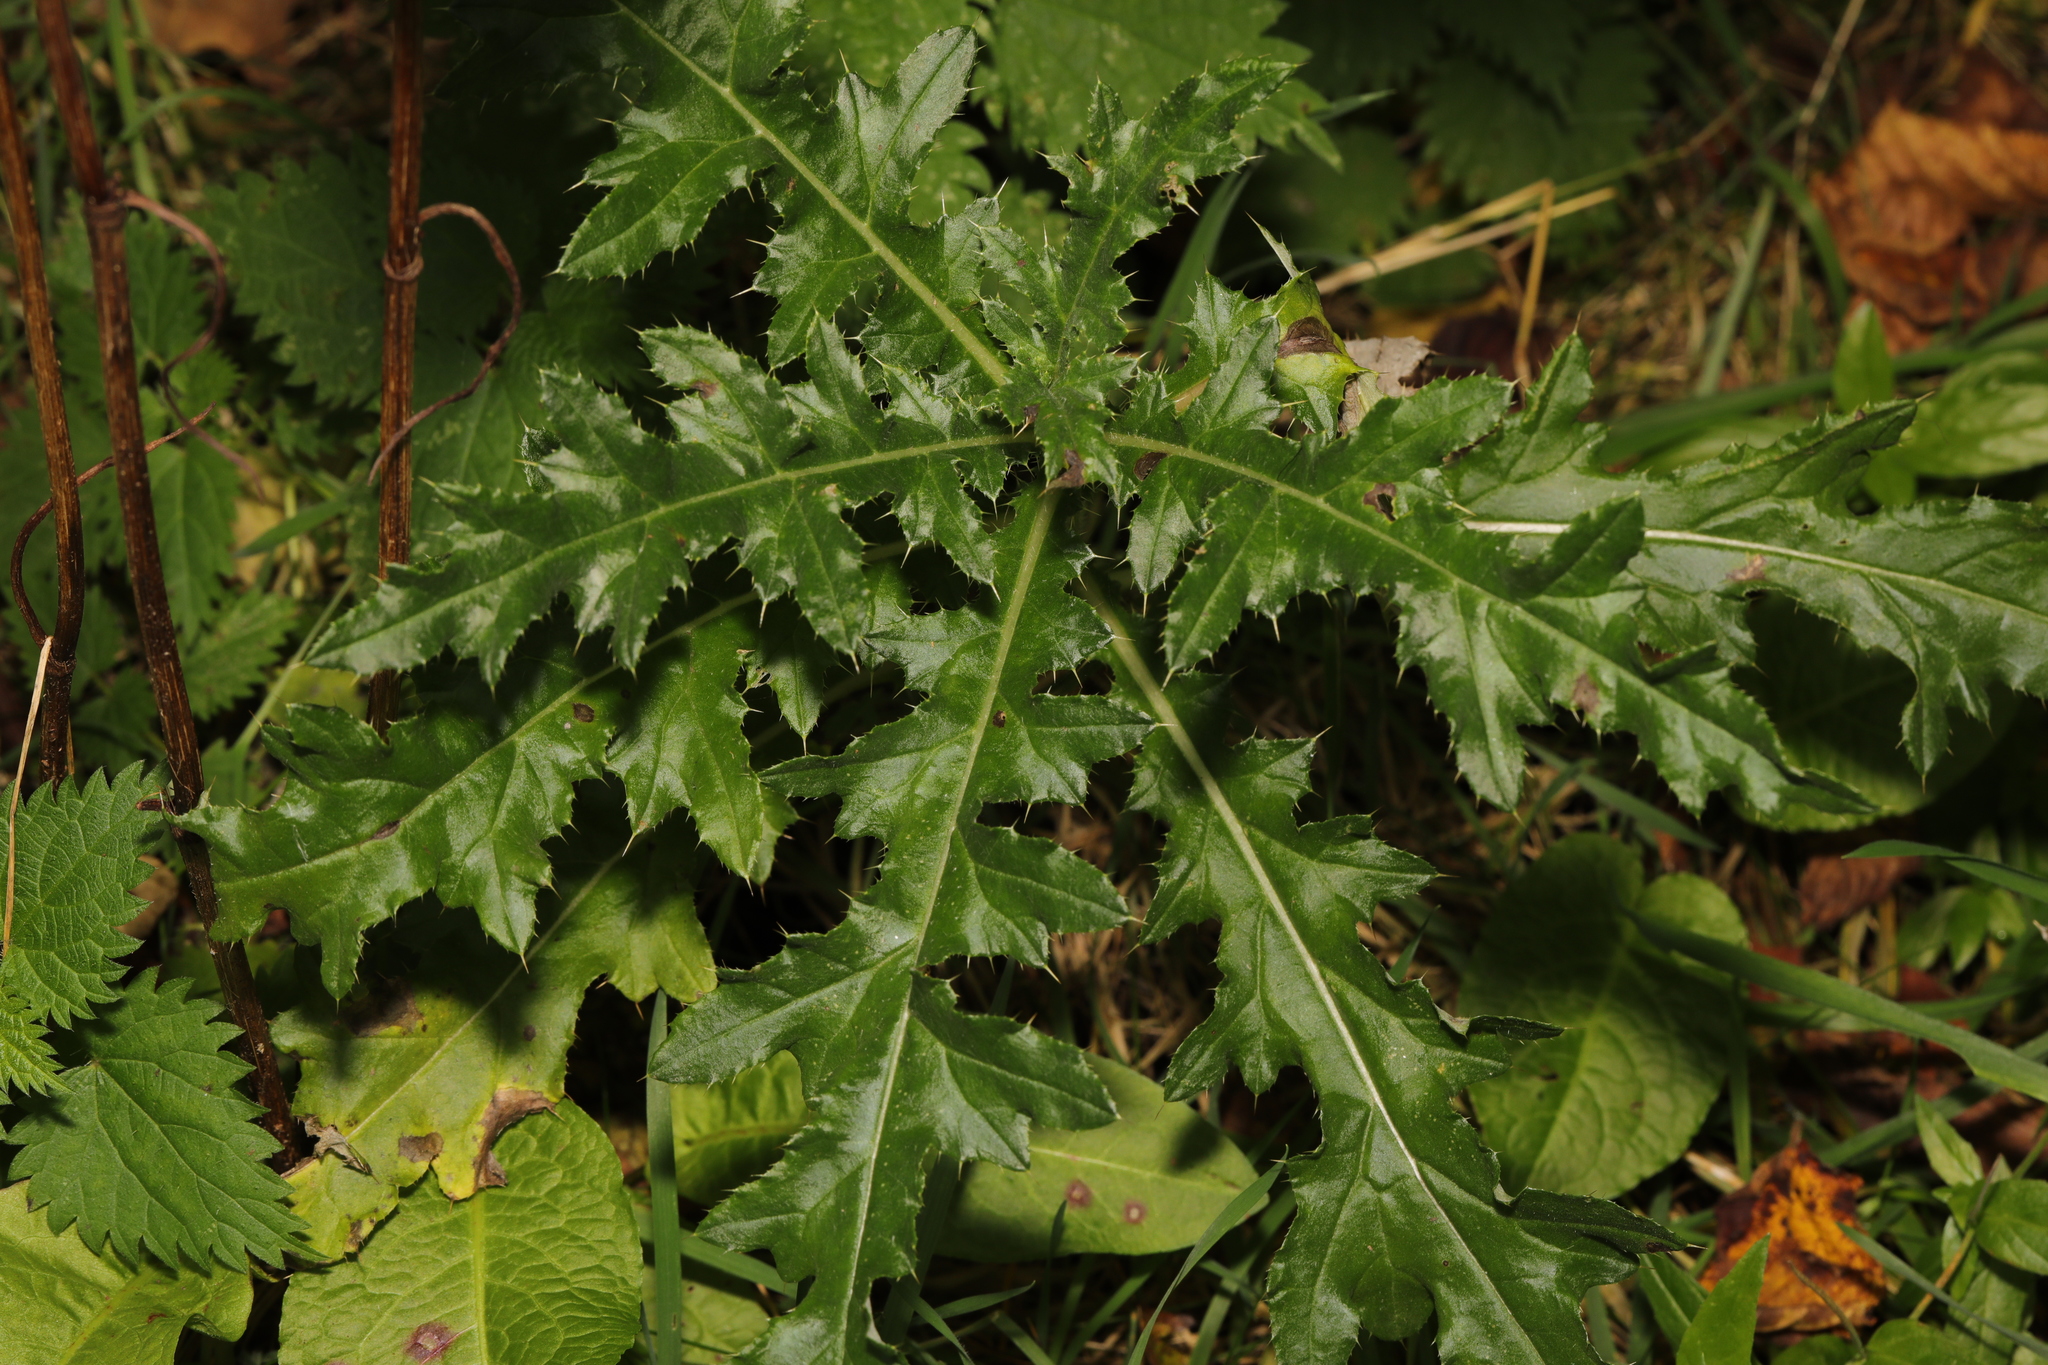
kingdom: Plantae
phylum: Tracheophyta
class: Magnoliopsida
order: Asterales
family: Asteraceae
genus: Cirsium
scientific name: Cirsium arvense
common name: Creeping thistle
